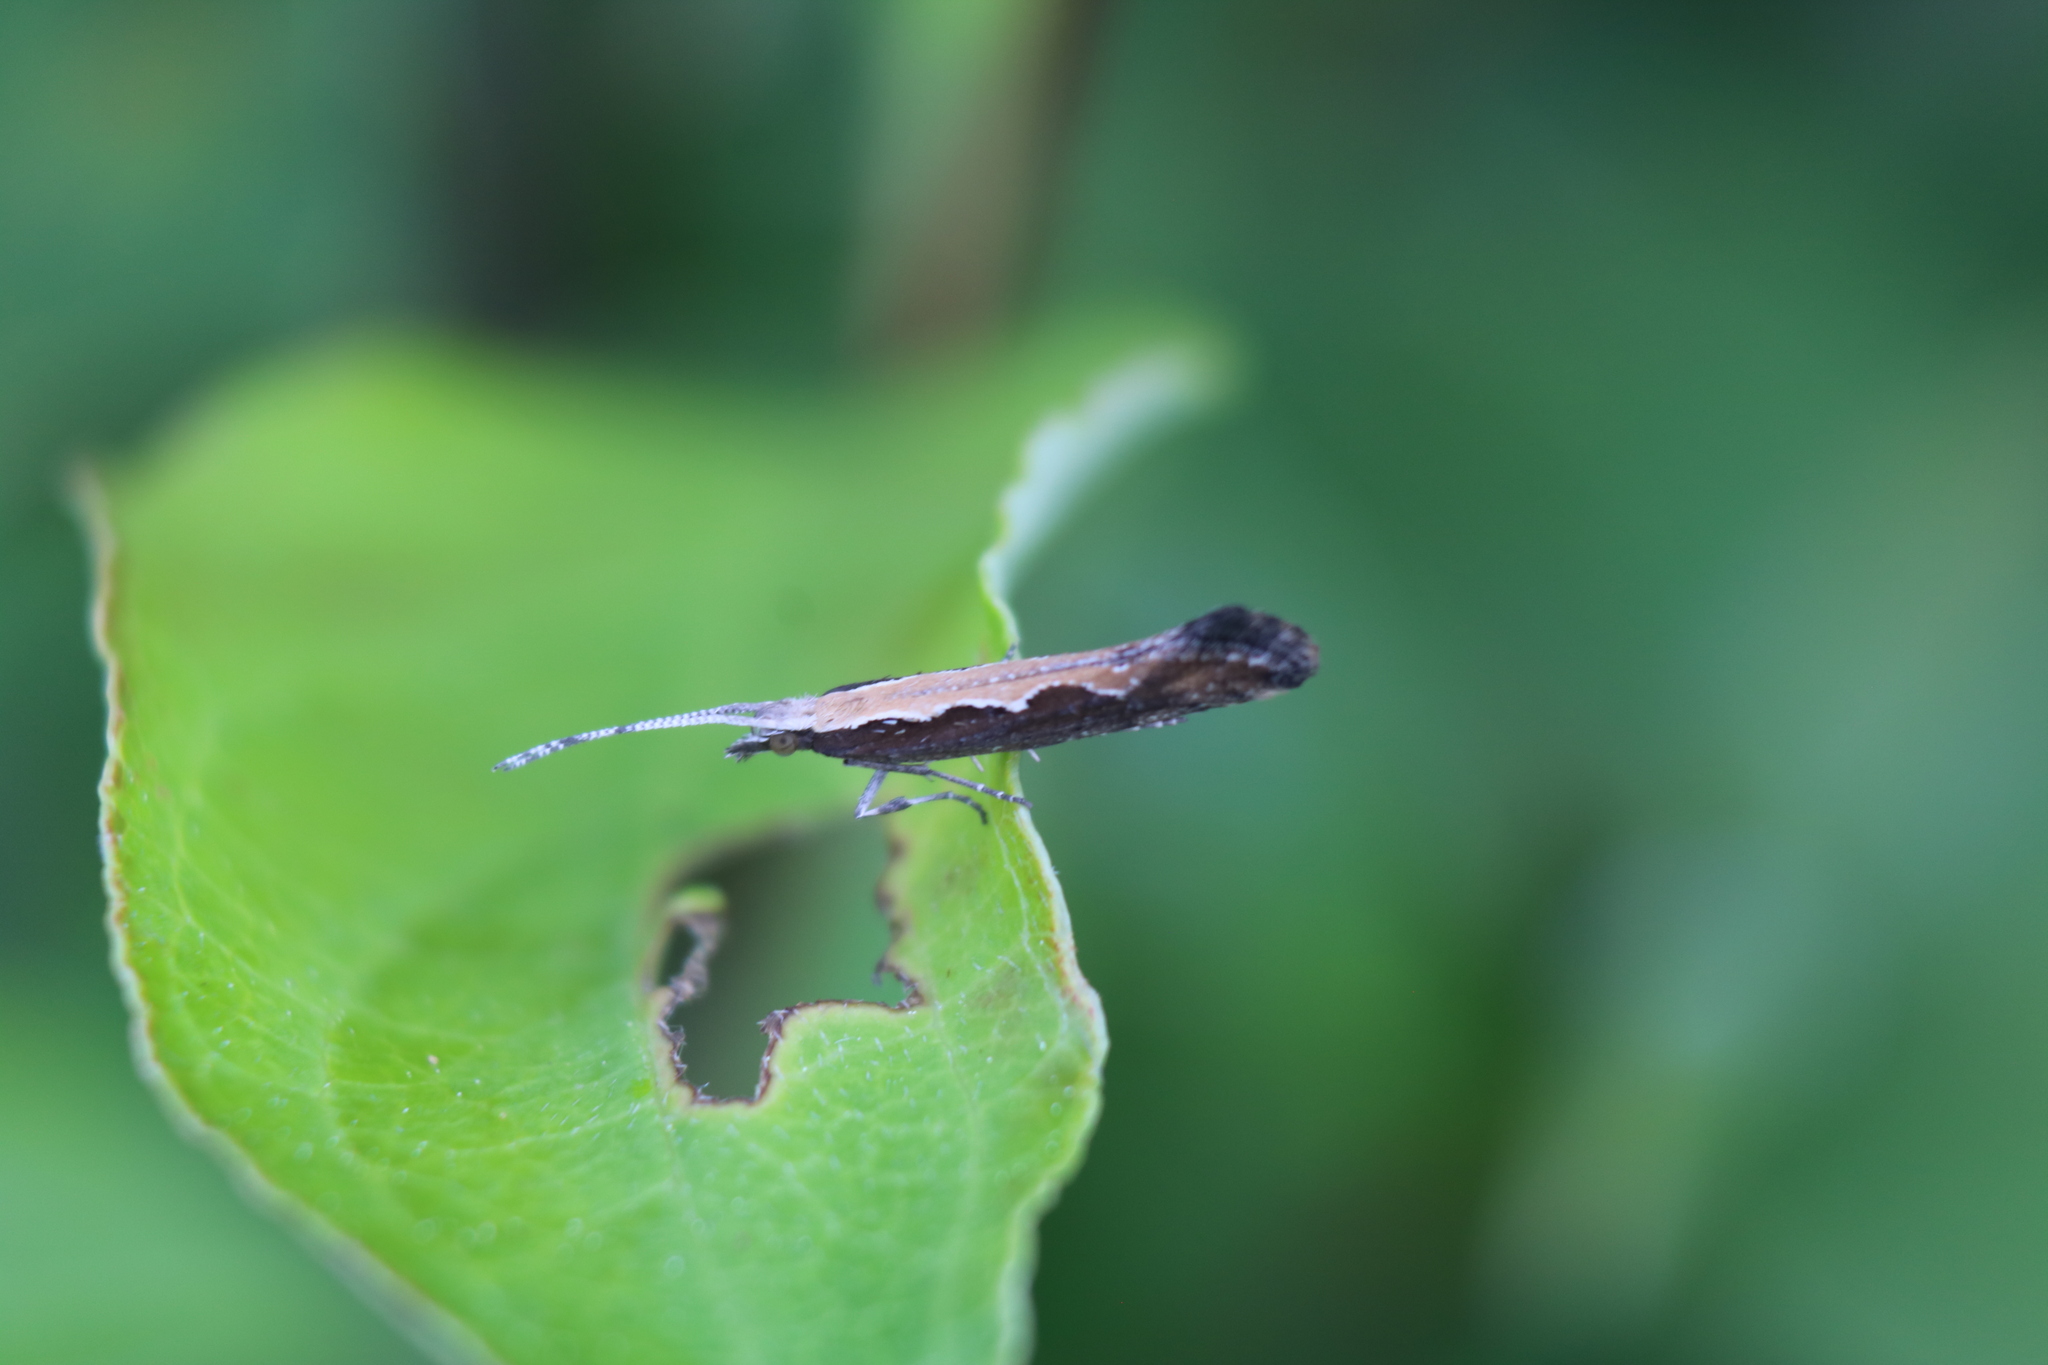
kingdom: Animalia
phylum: Arthropoda
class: Insecta
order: Lepidoptera
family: Plutellidae
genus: Plutella
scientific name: Plutella xylostella
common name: Diamond-back moth
